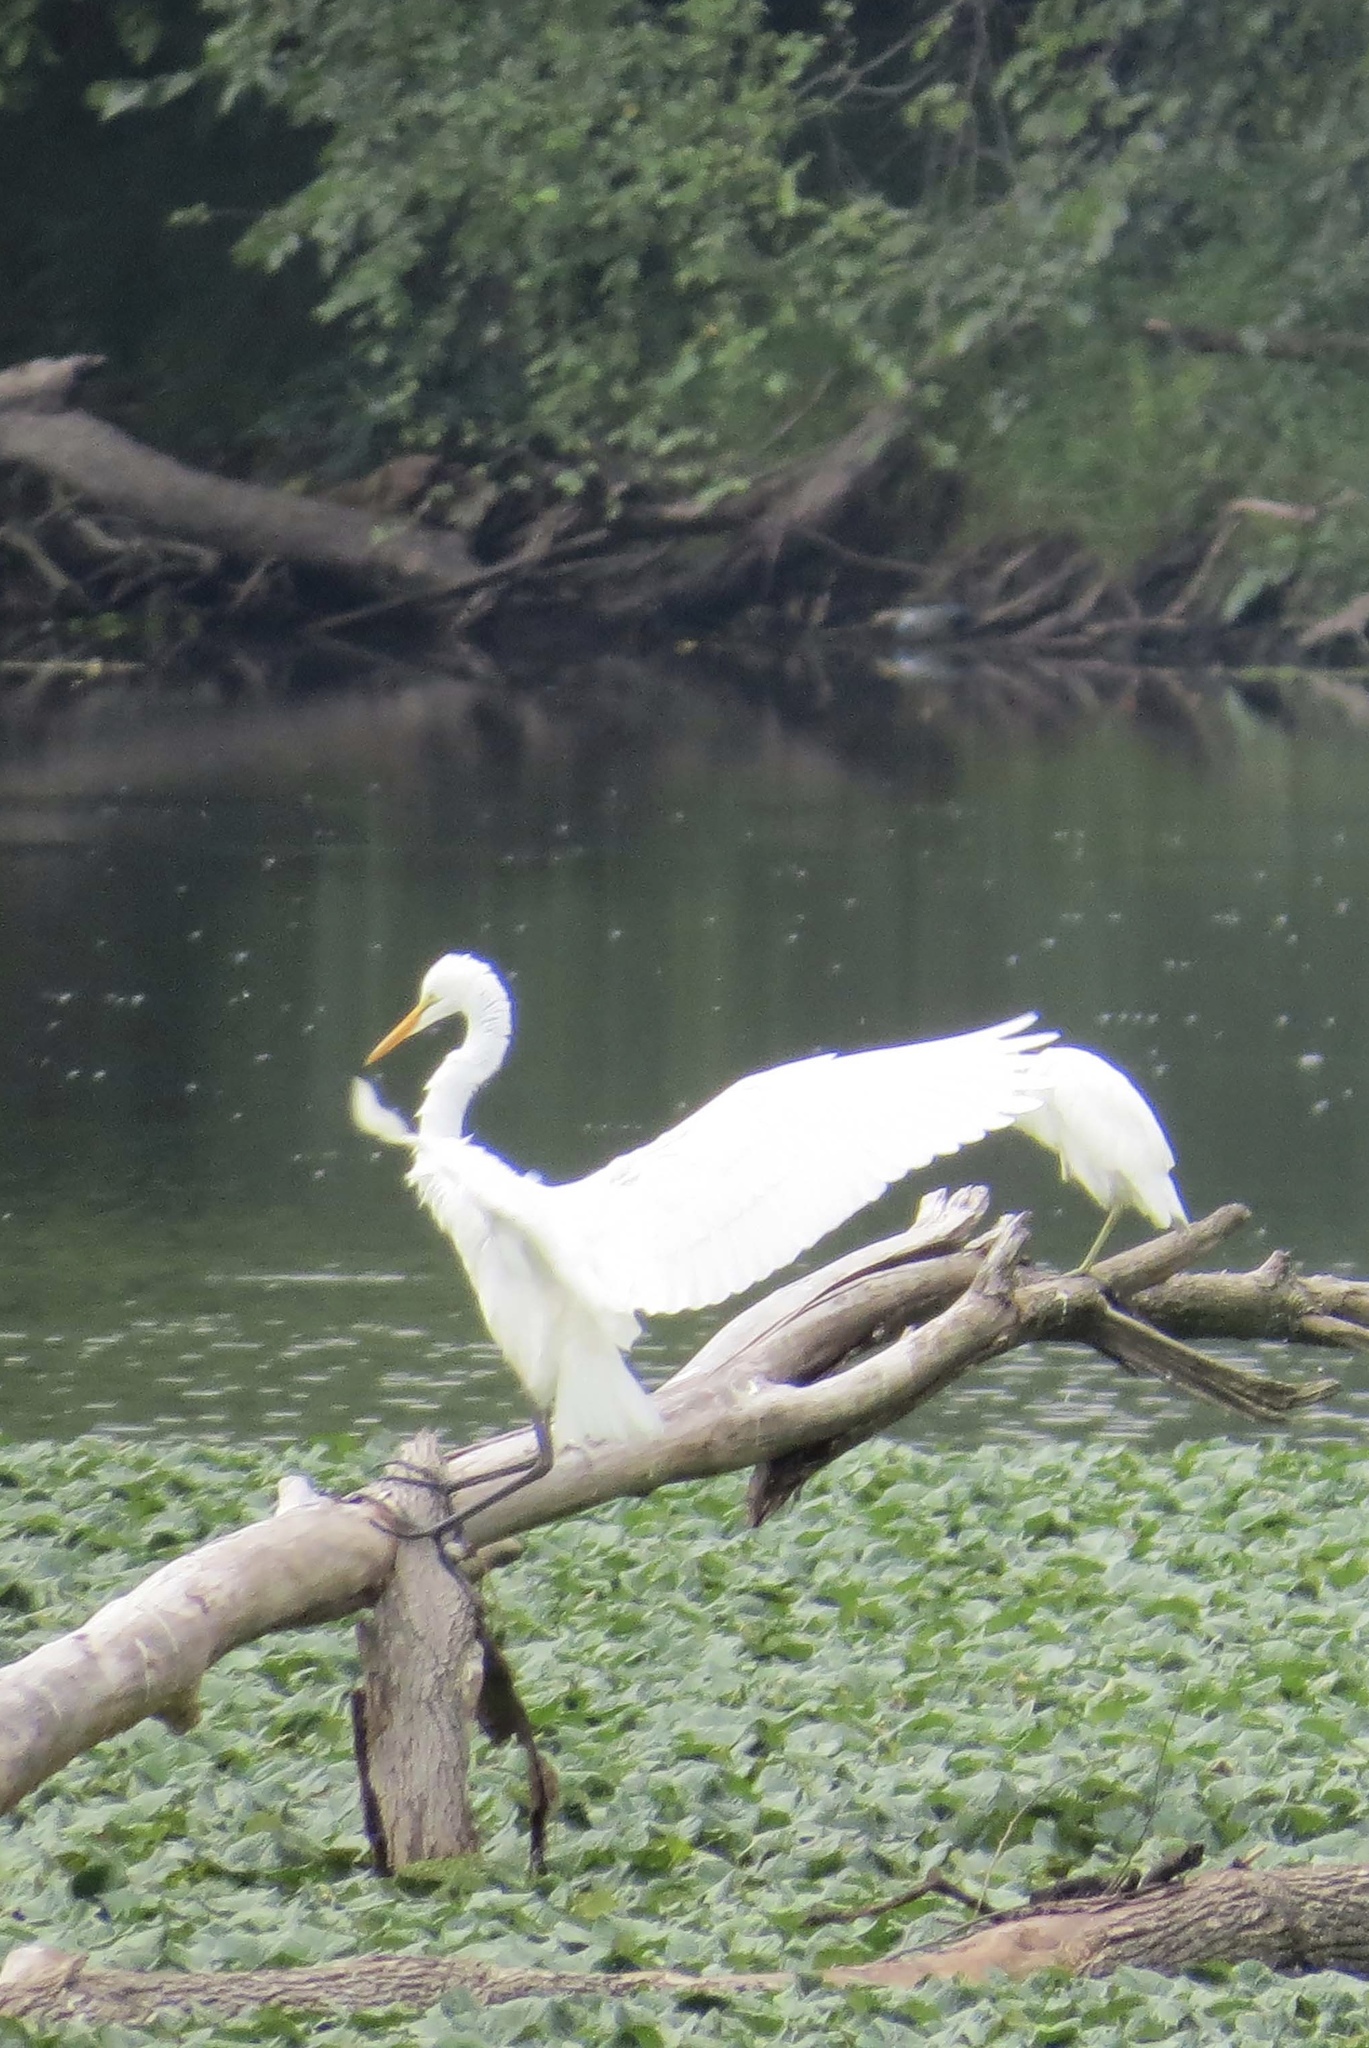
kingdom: Animalia
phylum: Chordata
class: Aves
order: Pelecaniformes
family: Ardeidae
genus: Ardea
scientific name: Ardea alba
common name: Great egret
